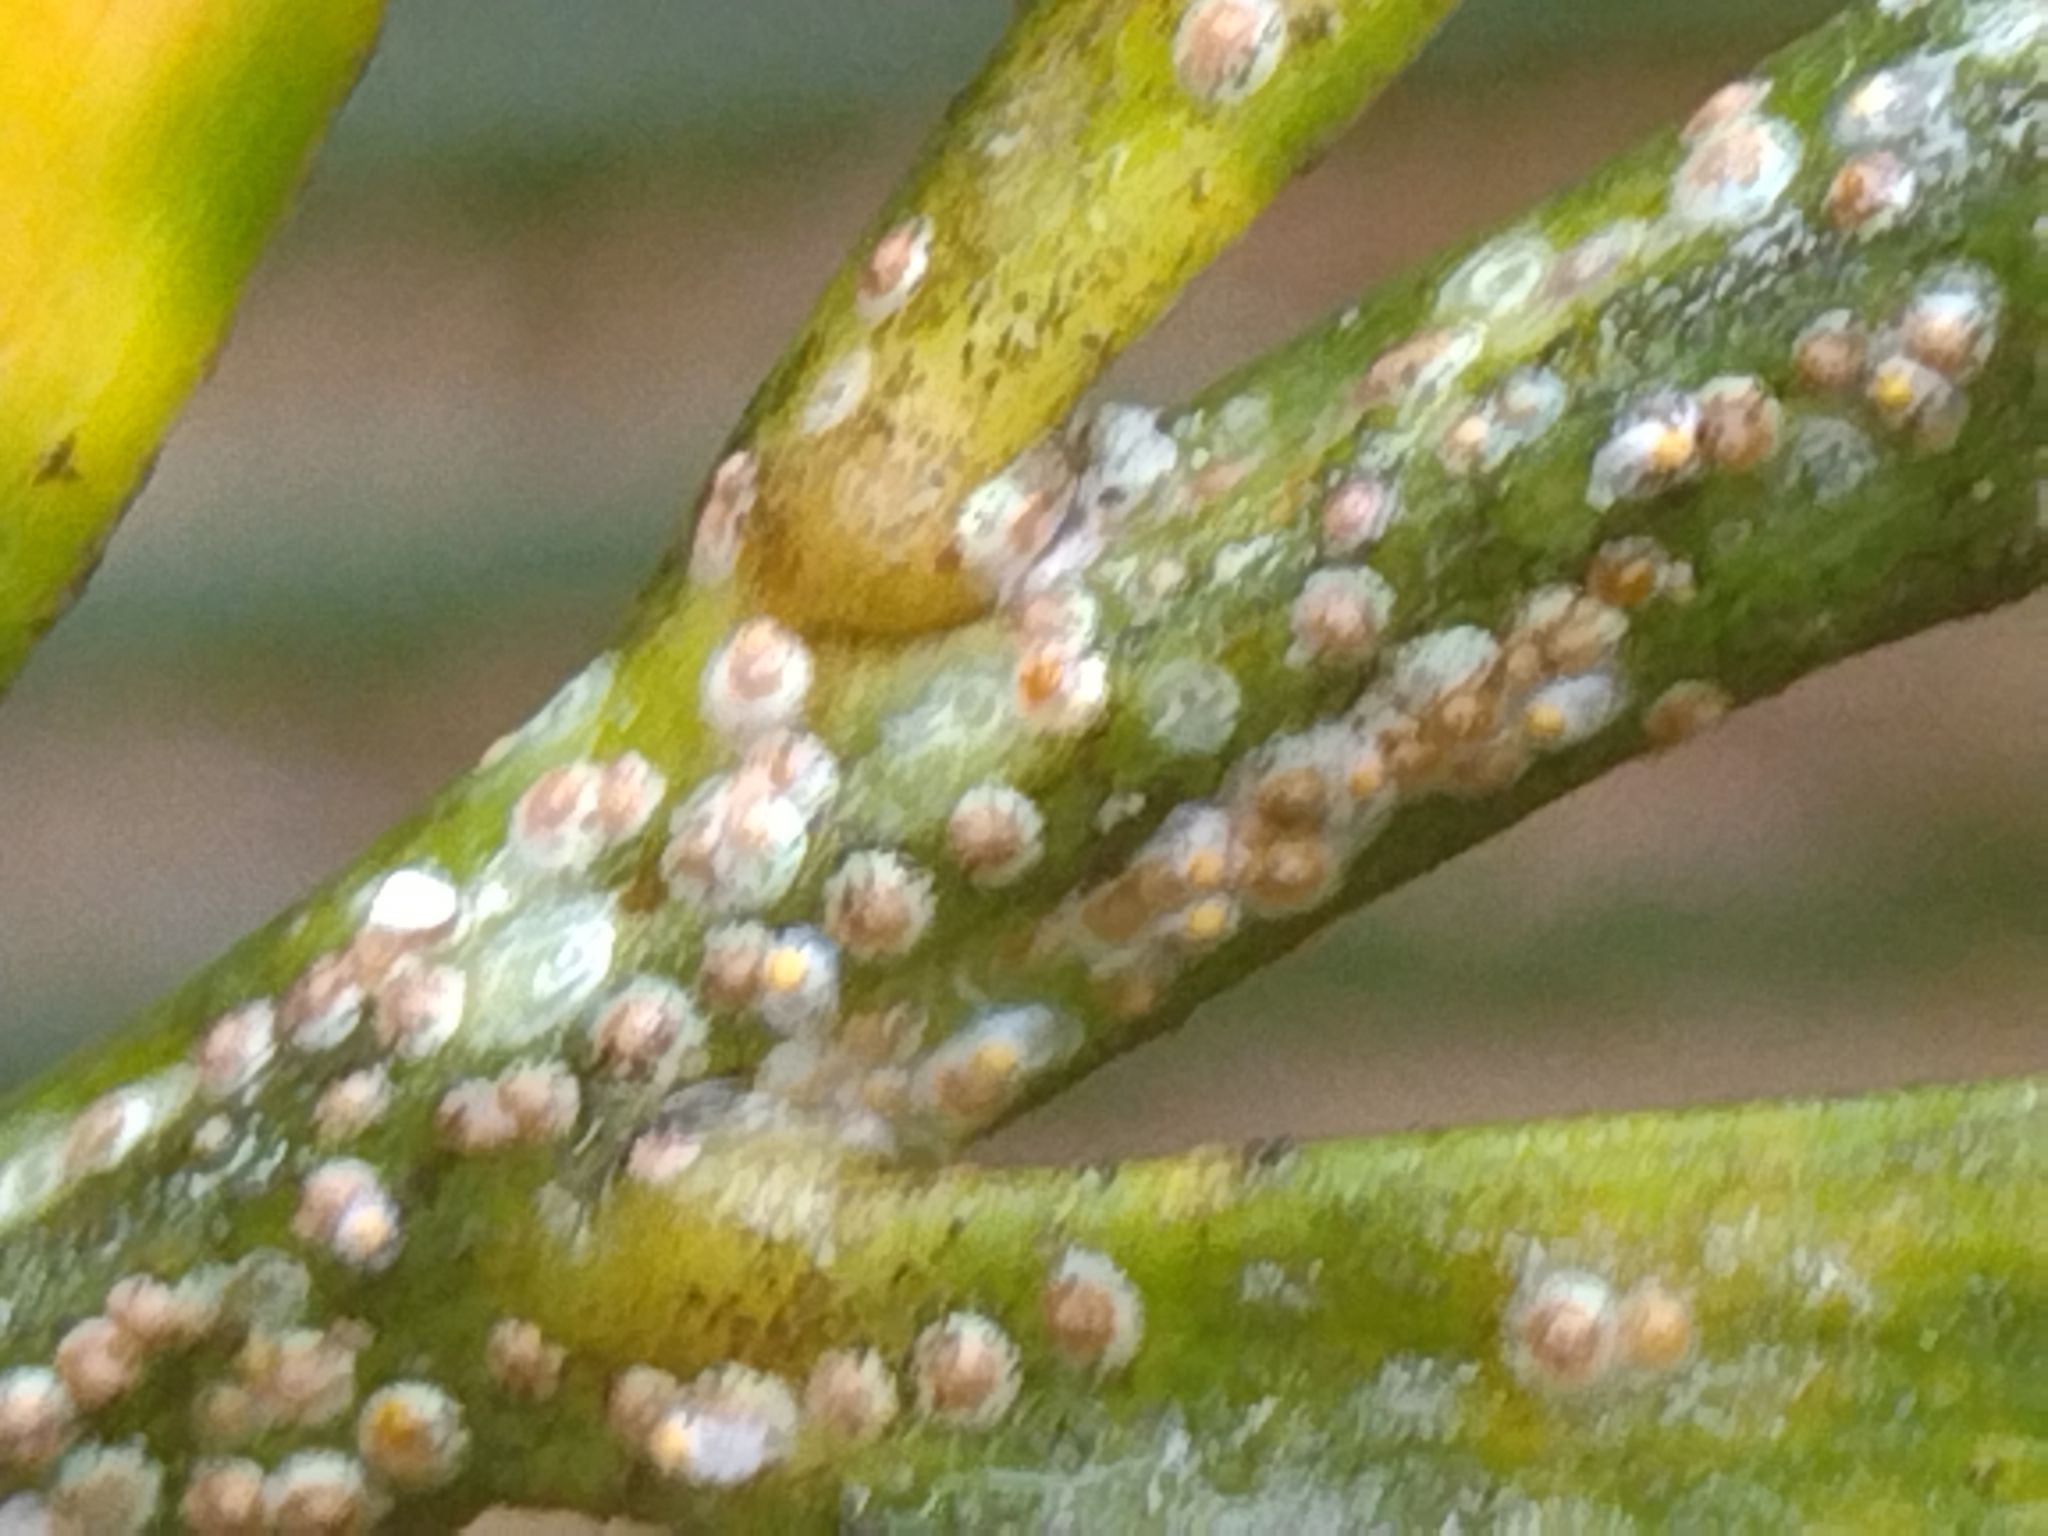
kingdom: Animalia
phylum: Arthropoda
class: Insecta
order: Hemiptera
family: Diaspididae
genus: Aspidiotus
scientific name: Aspidiotus
